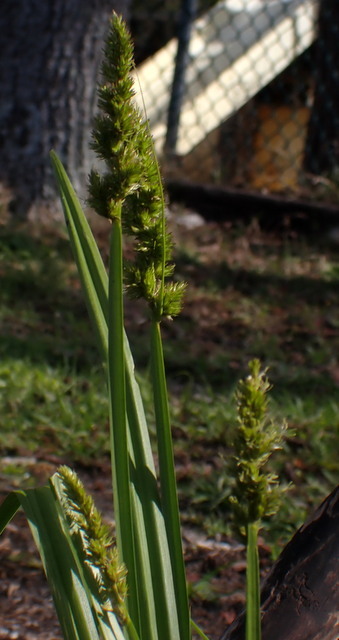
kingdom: Plantae
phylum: Tracheophyta
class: Liliopsida
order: Poales
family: Cyperaceae
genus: Carex
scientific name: Carex stipata
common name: Awl-fruited sedge
